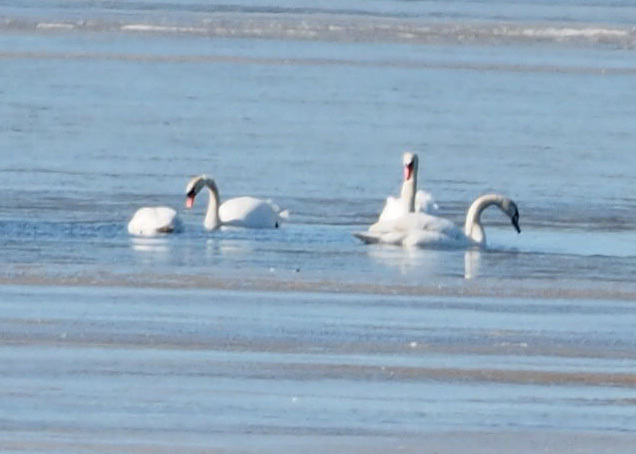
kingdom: Animalia
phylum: Chordata
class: Aves
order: Anseriformes
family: Anatidae
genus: Cygnus
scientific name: Cygnus olor
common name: Mute swan
